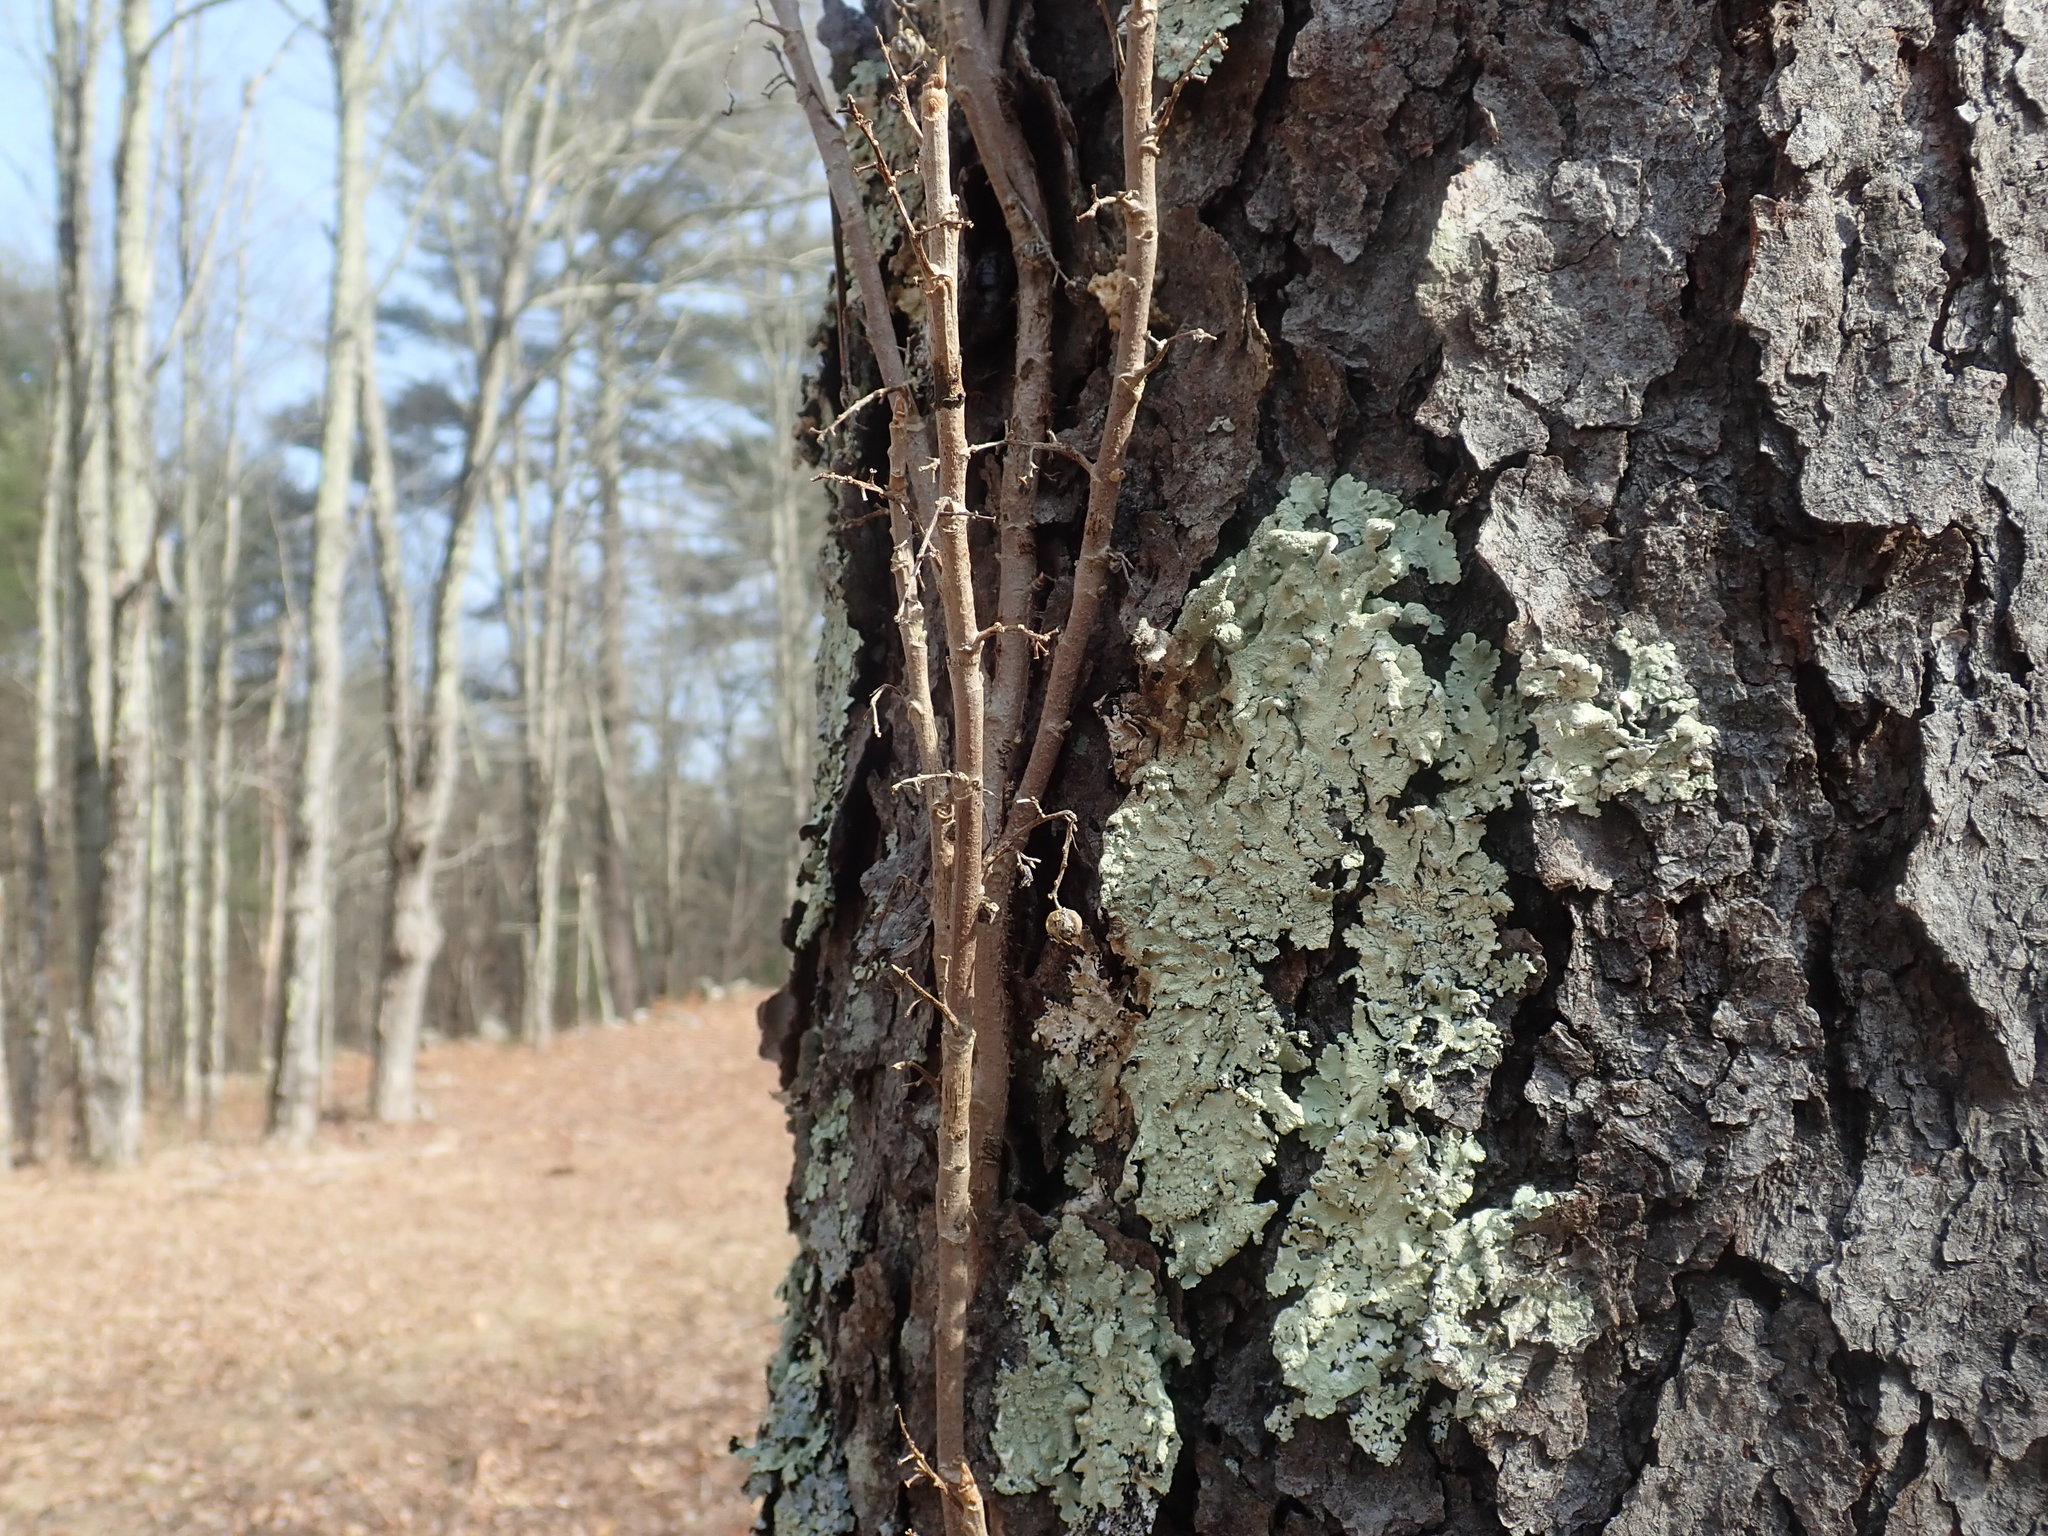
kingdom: Plantae
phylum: Tracheophyta
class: Magnoliopsida
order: Sapindales
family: Anacardiaceae
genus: Toxicodendron
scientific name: Toxicodendron radicans
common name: Poison ivy
